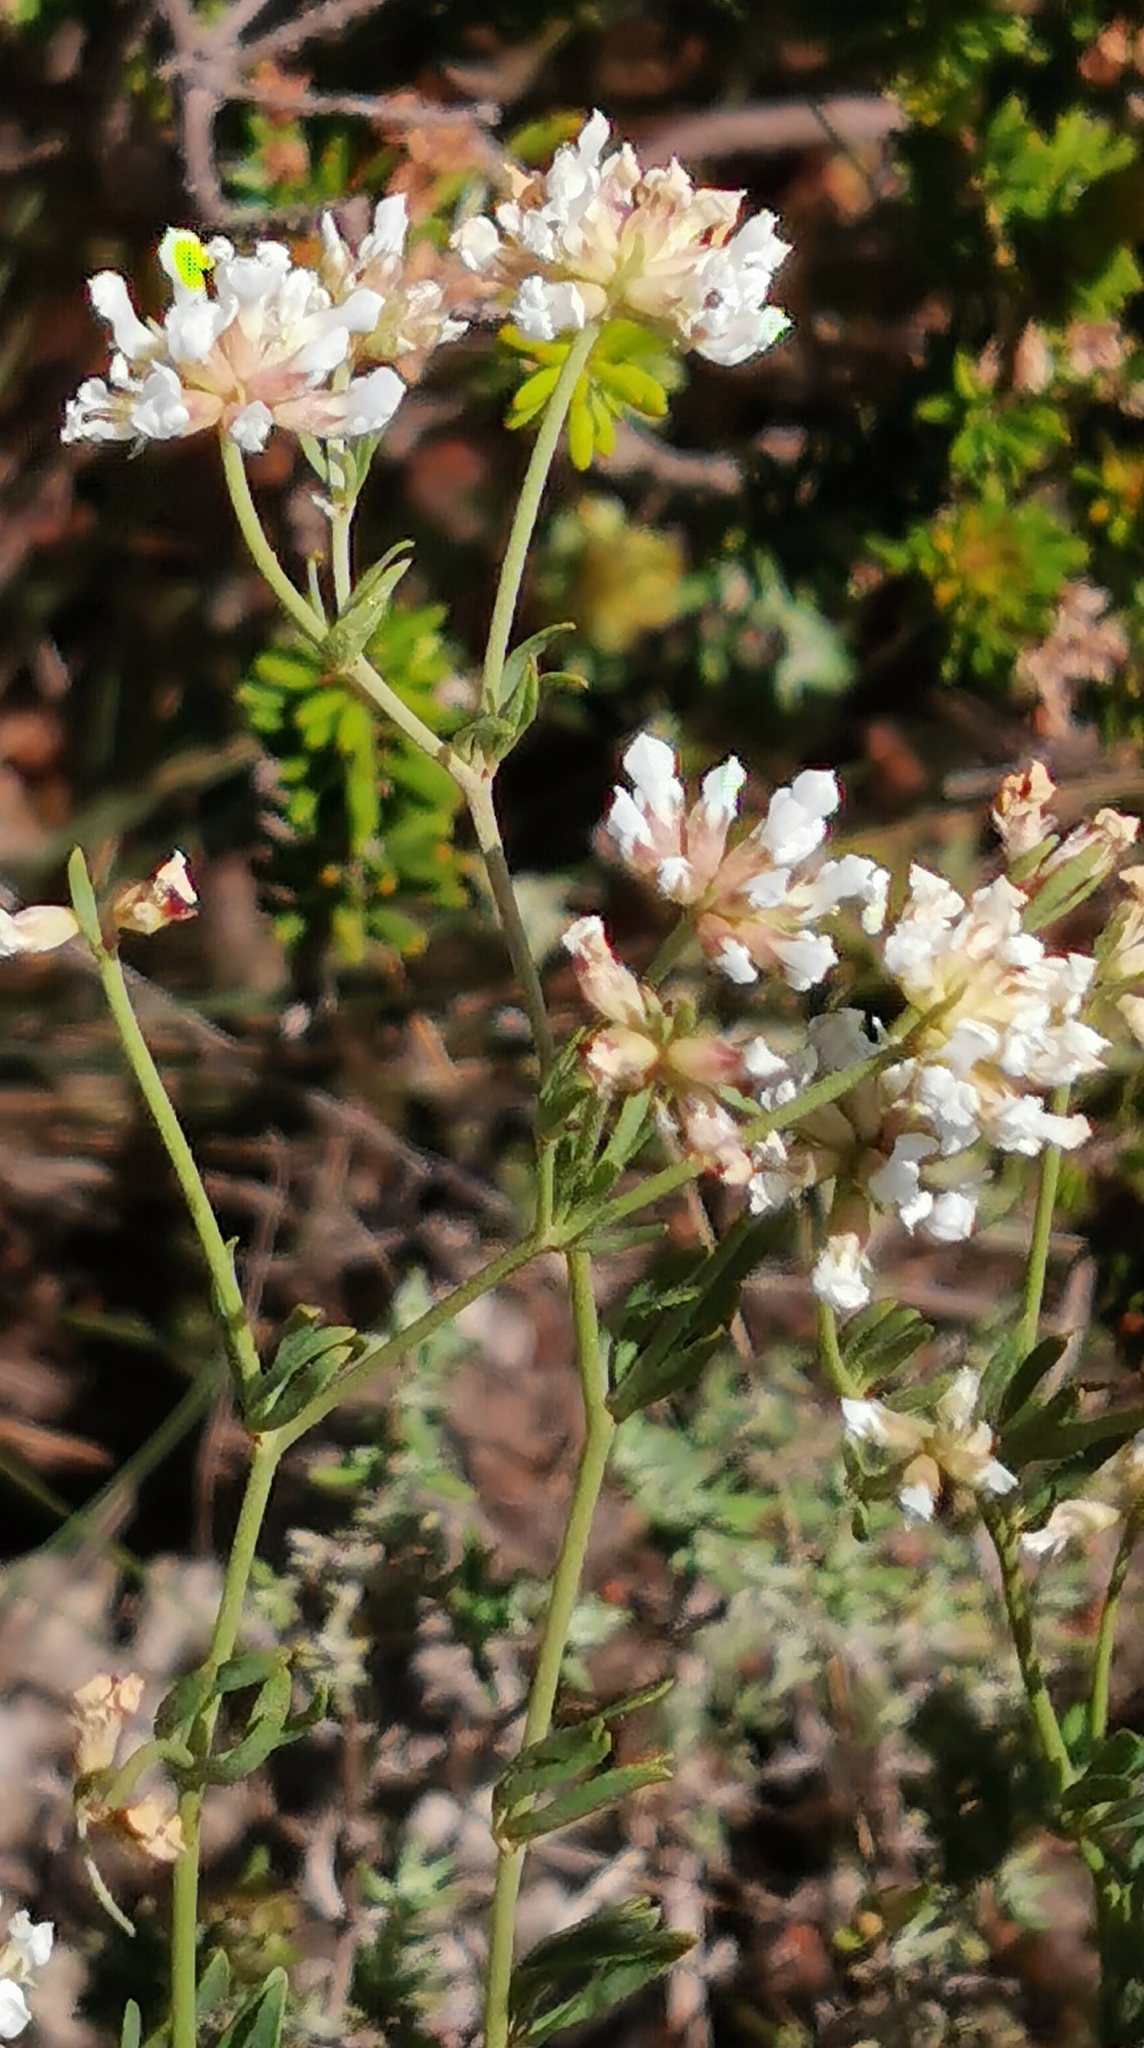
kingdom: Plantae
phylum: Tracheophyta
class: Magnoliopsida
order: Fabales
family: Fabaceae
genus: Lotus
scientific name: Lotus dorycnium
